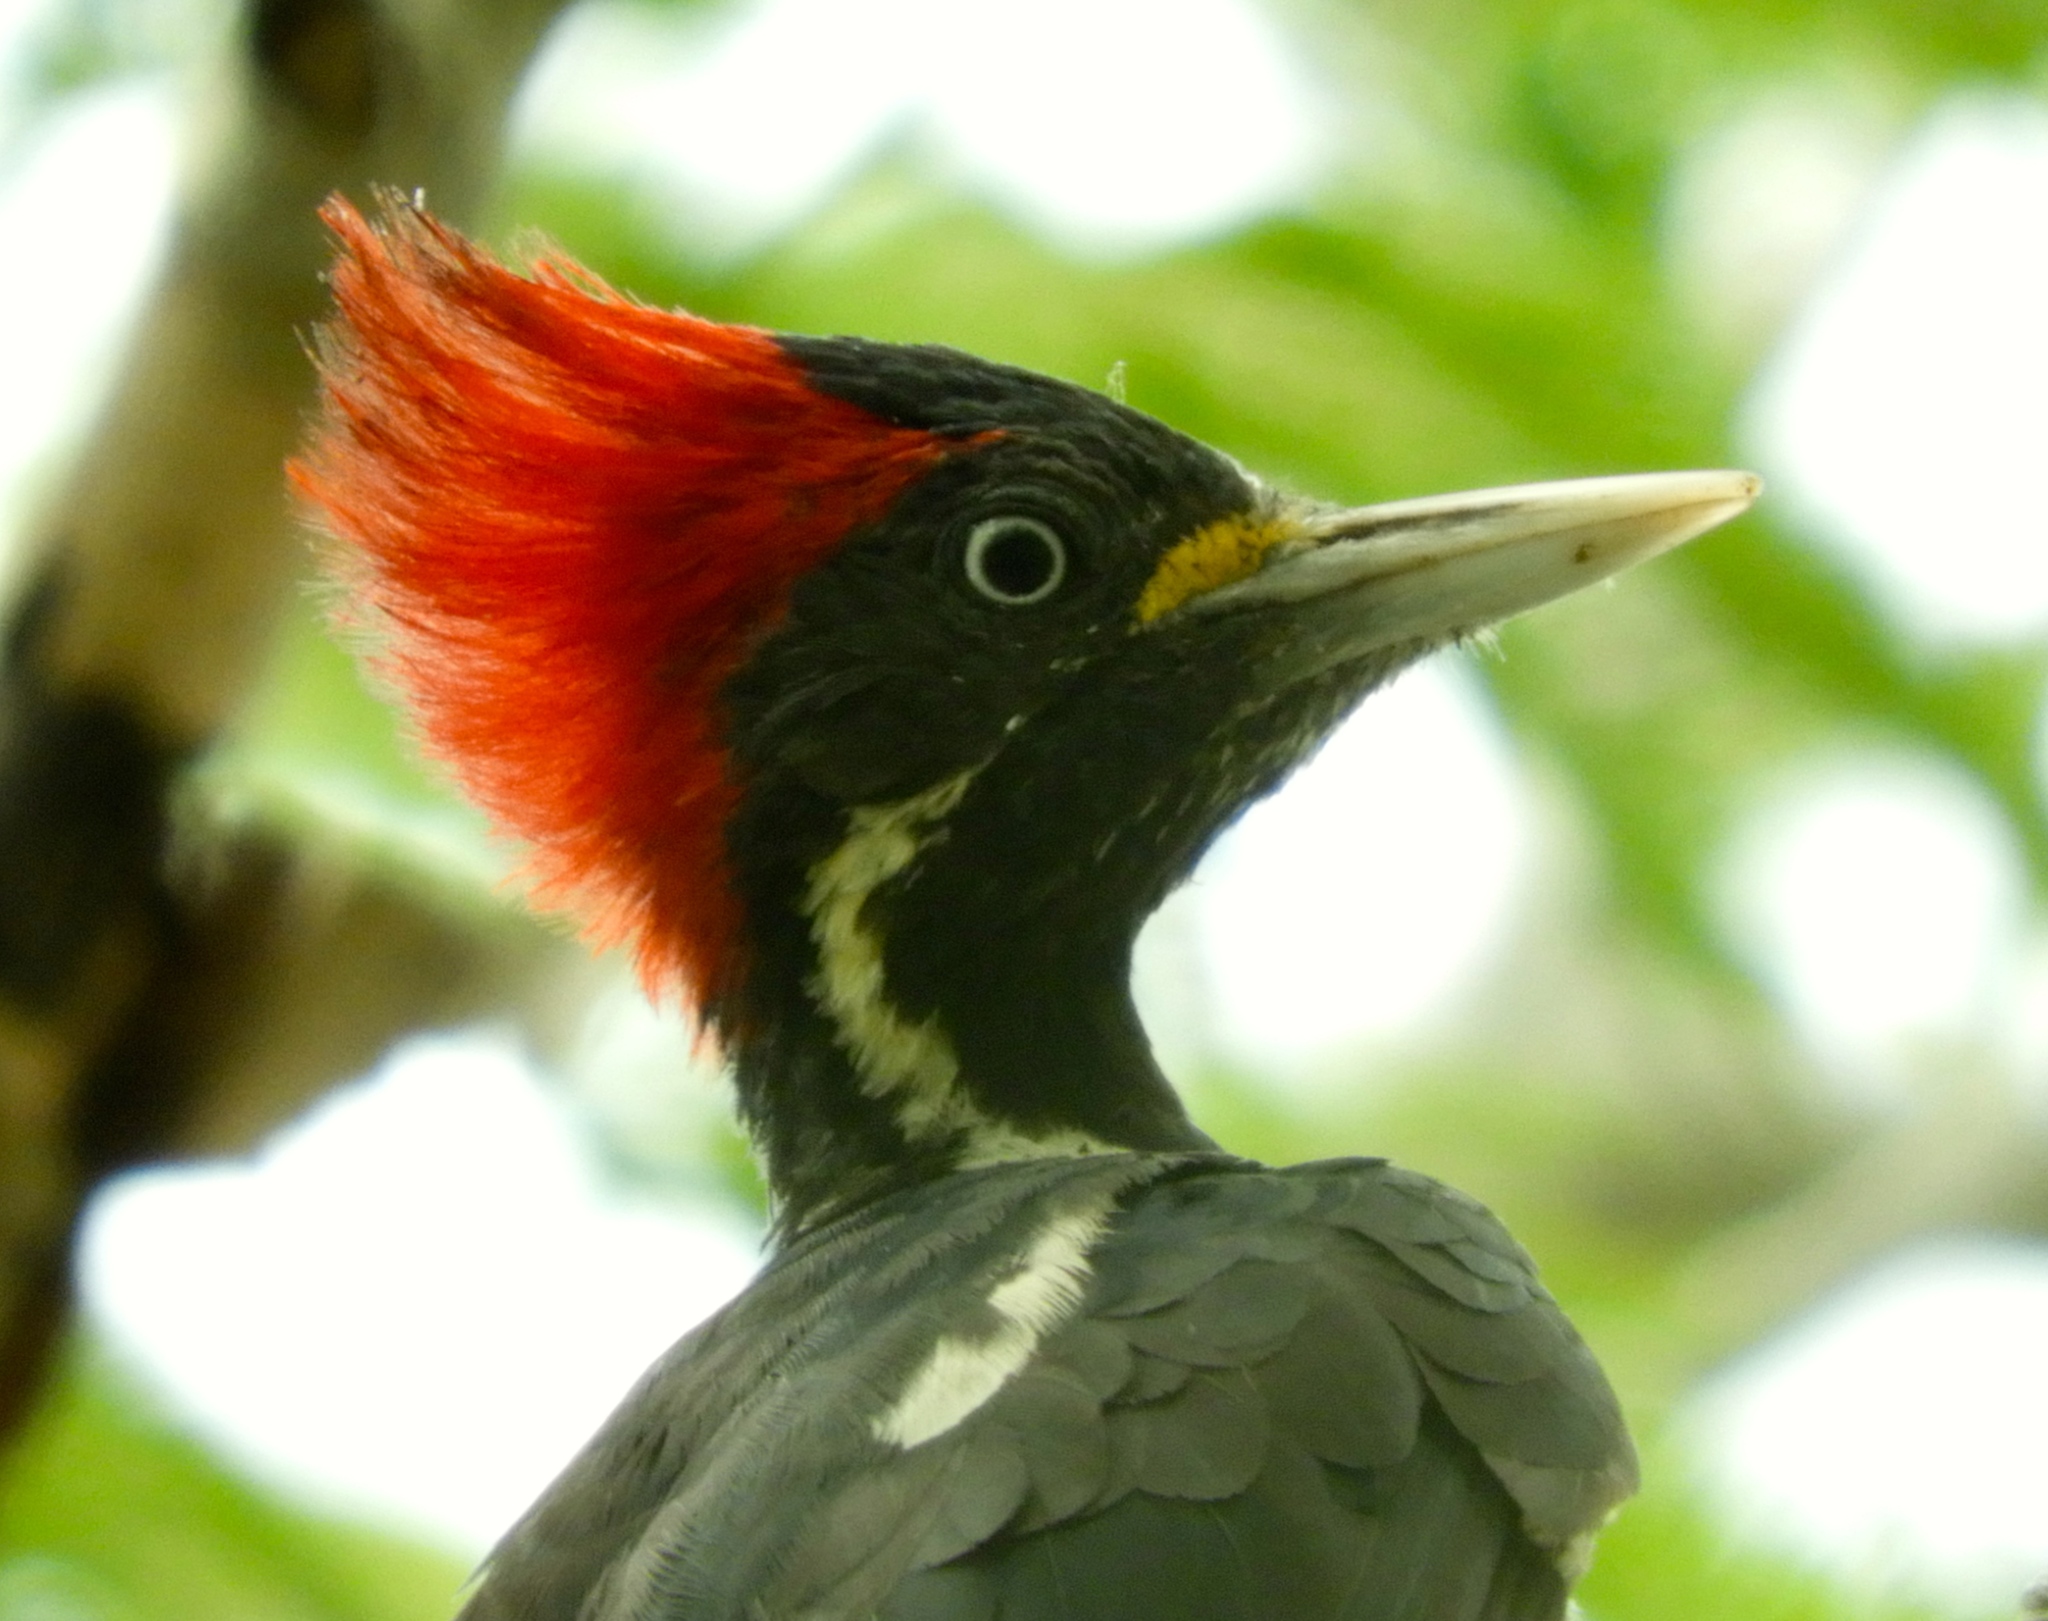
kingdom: Animalia
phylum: Chordata
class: Aves
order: Piciformes
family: Picidae
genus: Dryocopus
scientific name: Dryocopus lineatus
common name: Lineated woodpecker
